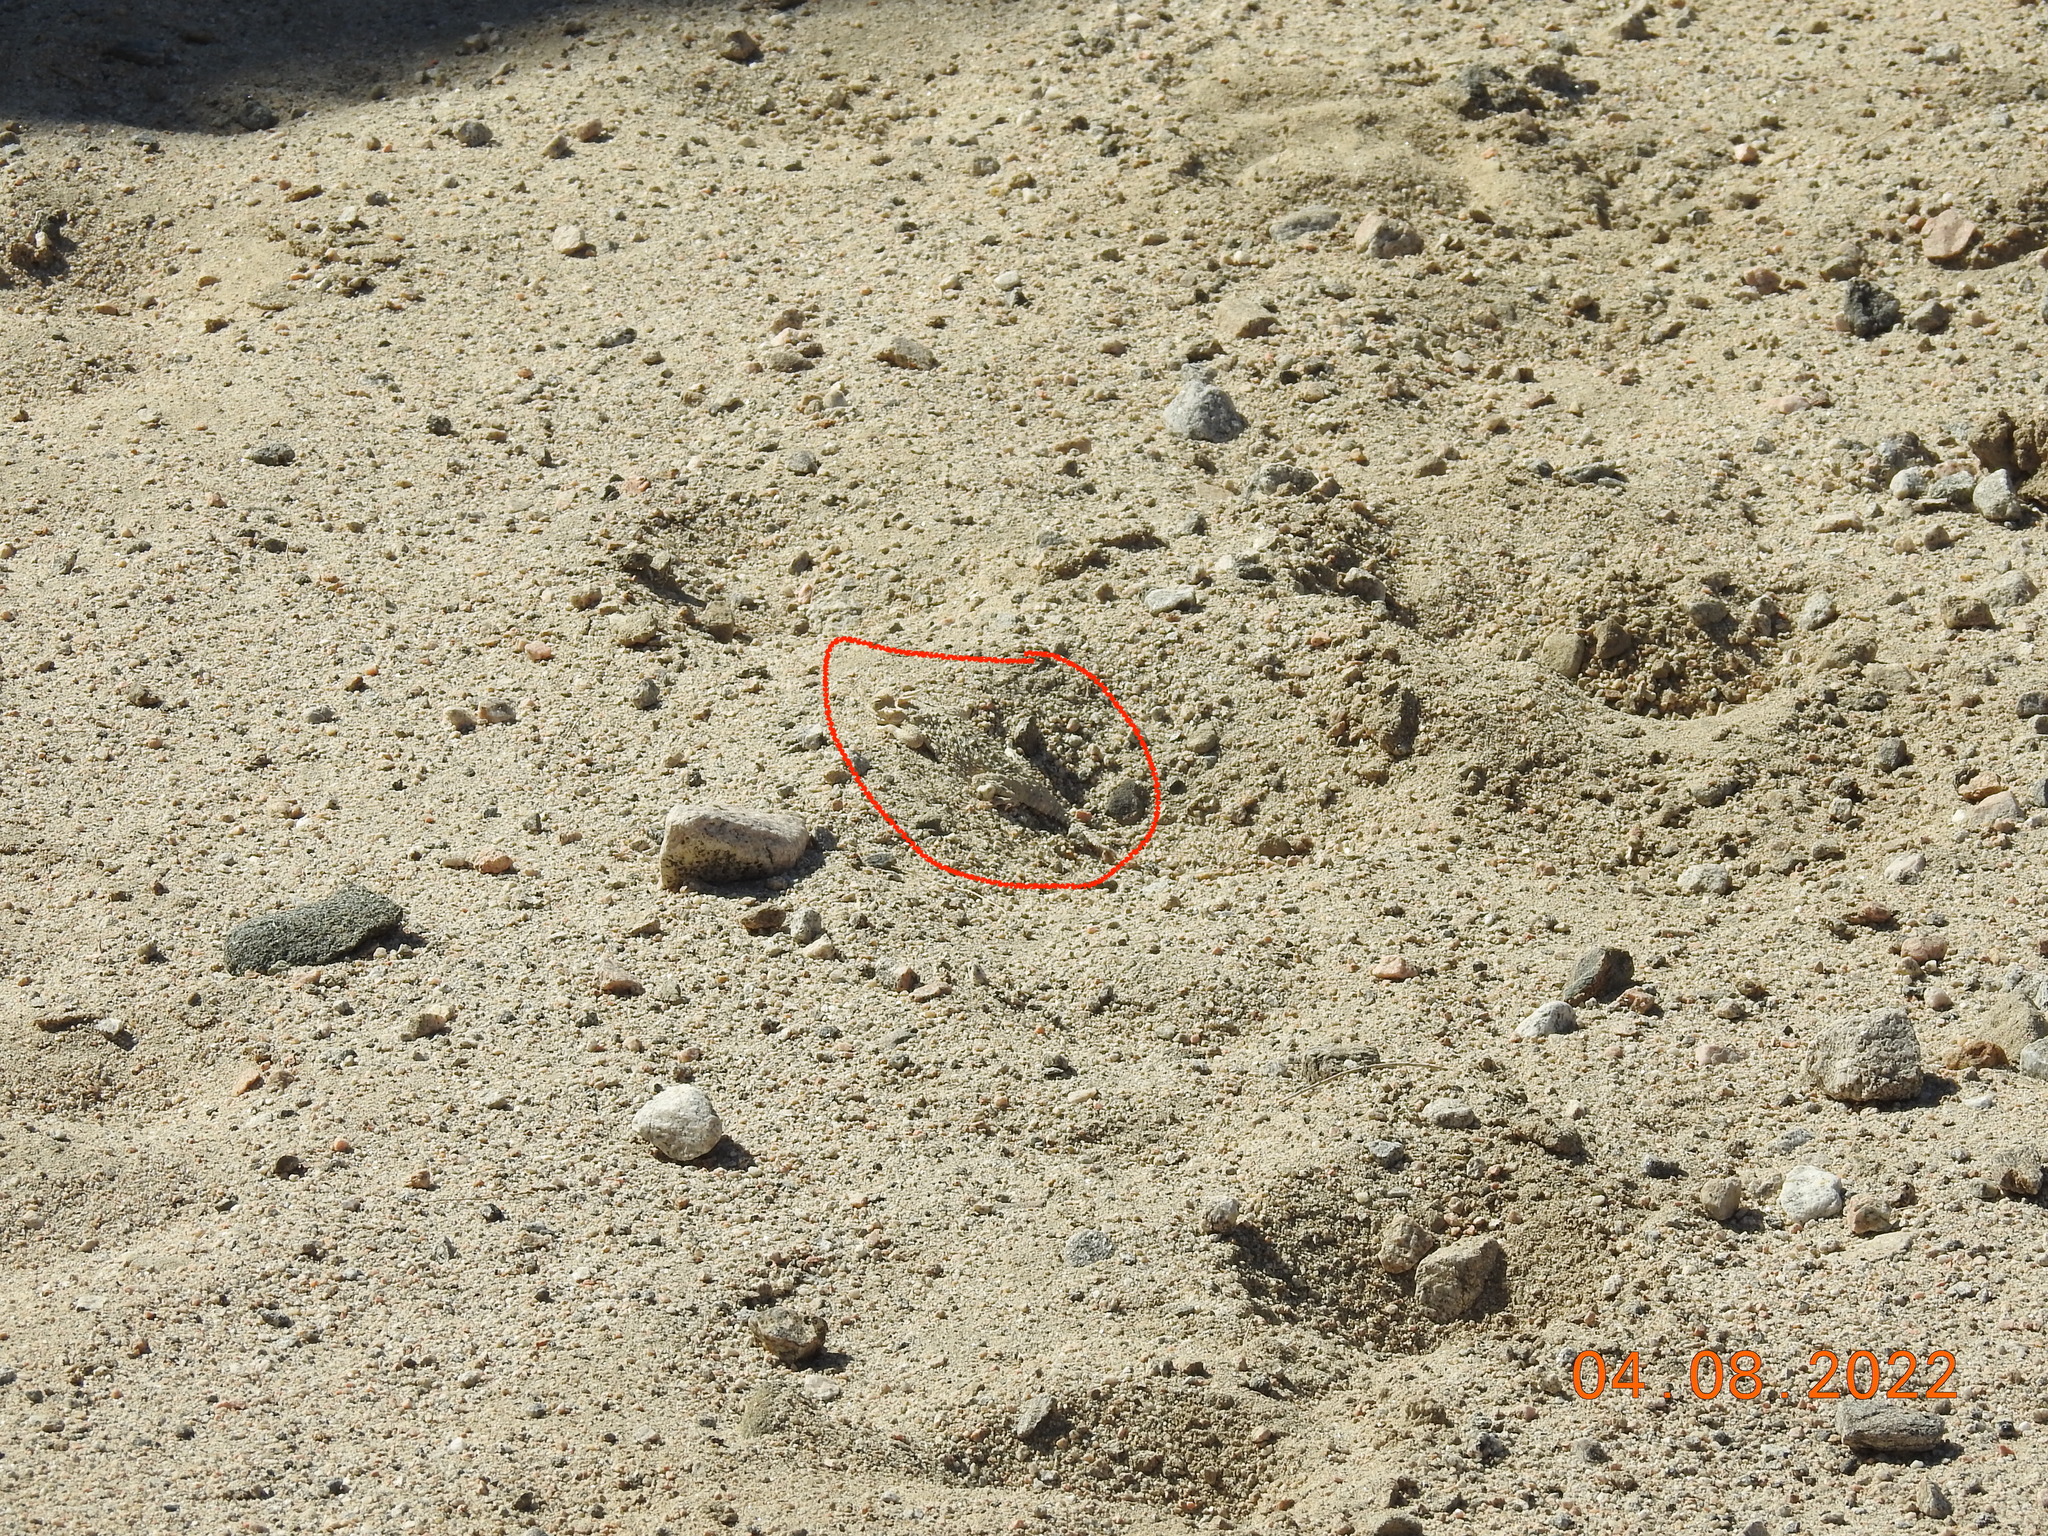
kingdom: Animalia
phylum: Chordata
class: Squamata
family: Phrynosomatidae
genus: Phrynosoma
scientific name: Phrynosoma platyrhinos
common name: Desert horned lizard
